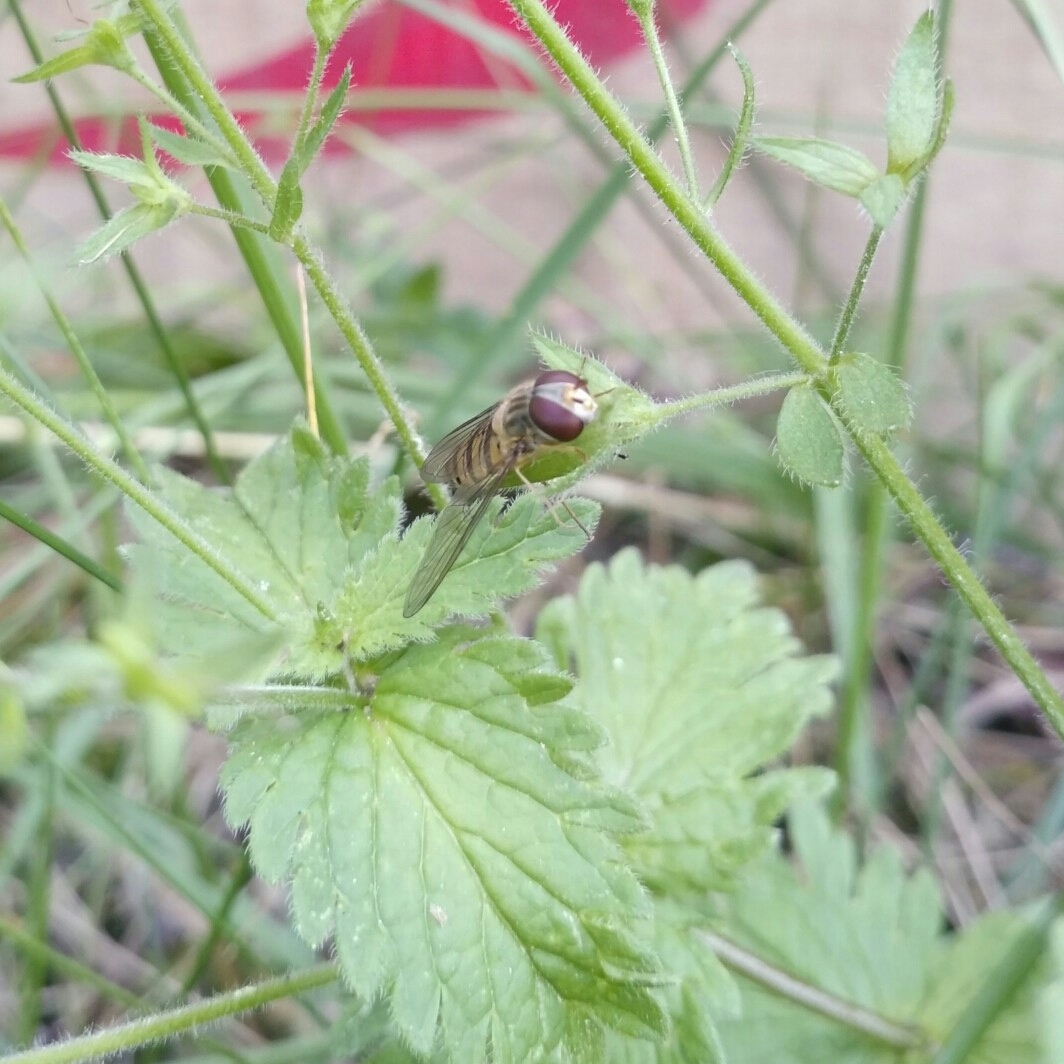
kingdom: Animalia
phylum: Arthropoda
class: Insecta
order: Diptera
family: Syrphidae
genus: Episyrphus
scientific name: Episyrphus balteatus
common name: Marmalade hoverfly
